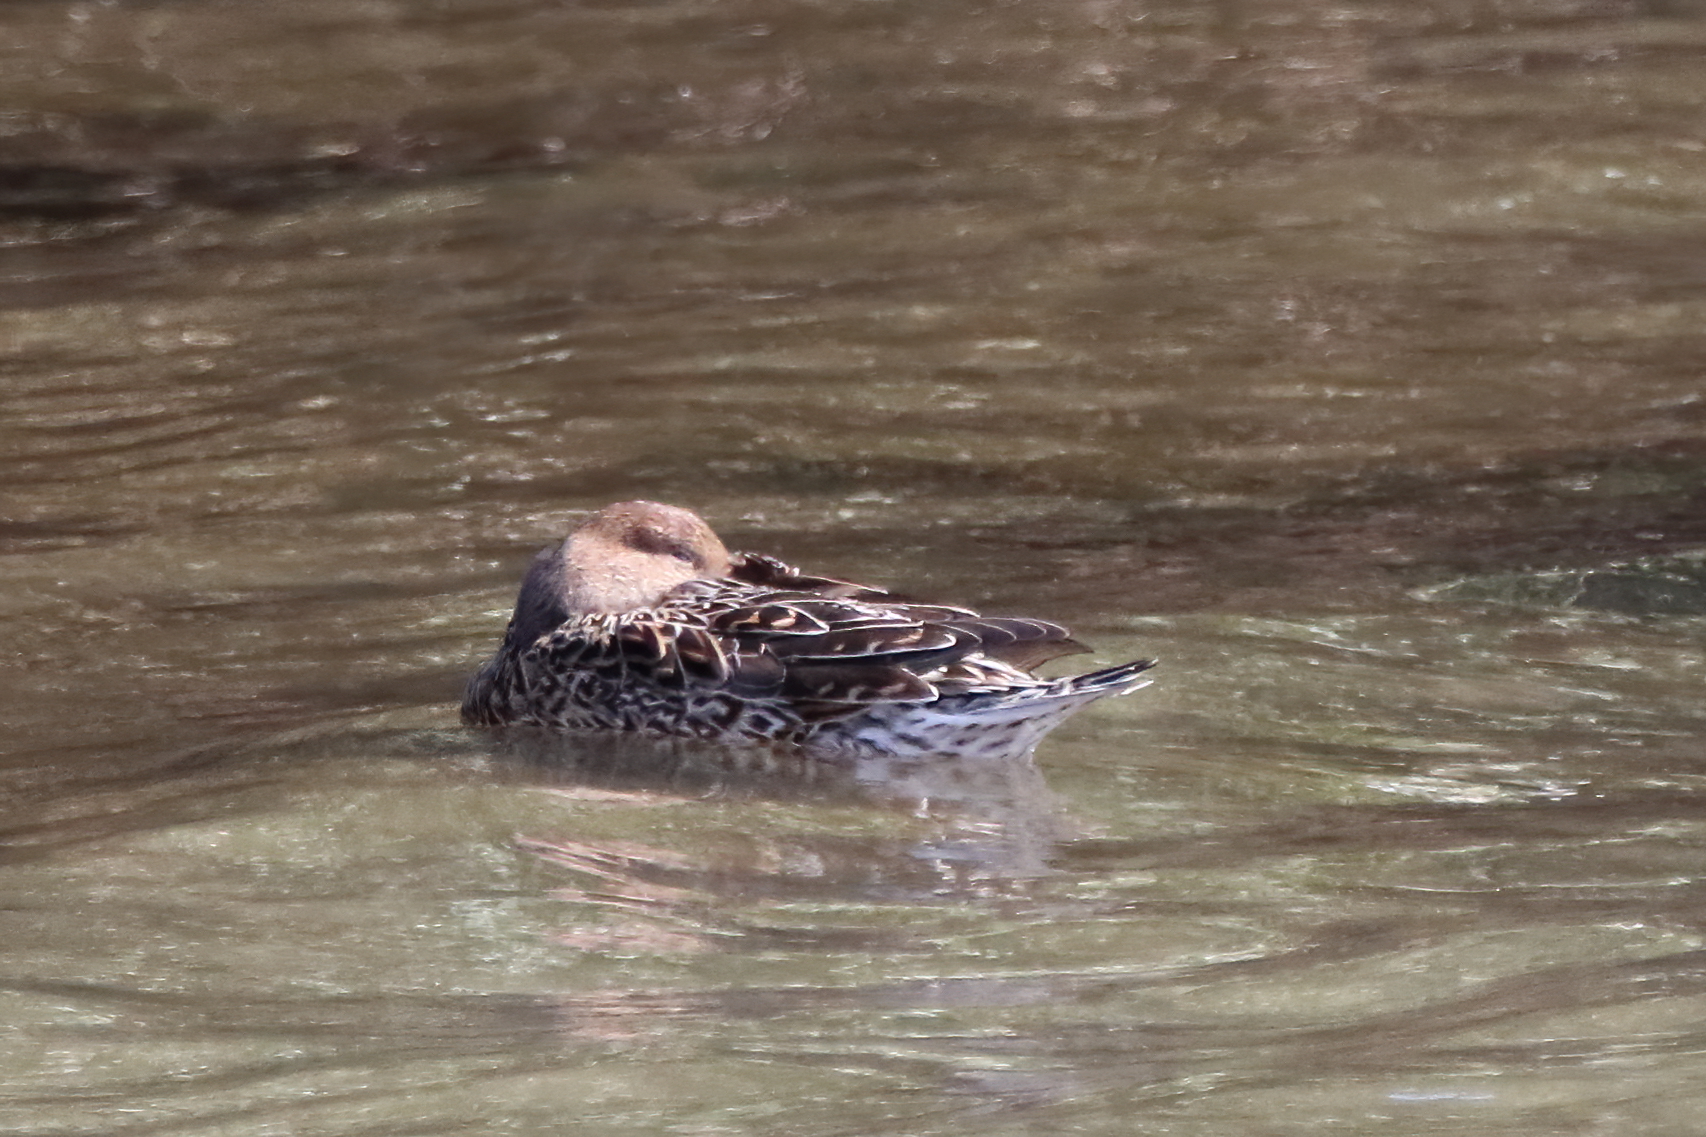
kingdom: Animalia
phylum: Chordata
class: Aves
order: Anseriformes
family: Anatidae
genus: Anas
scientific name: Anas acuta
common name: Northern pintail
